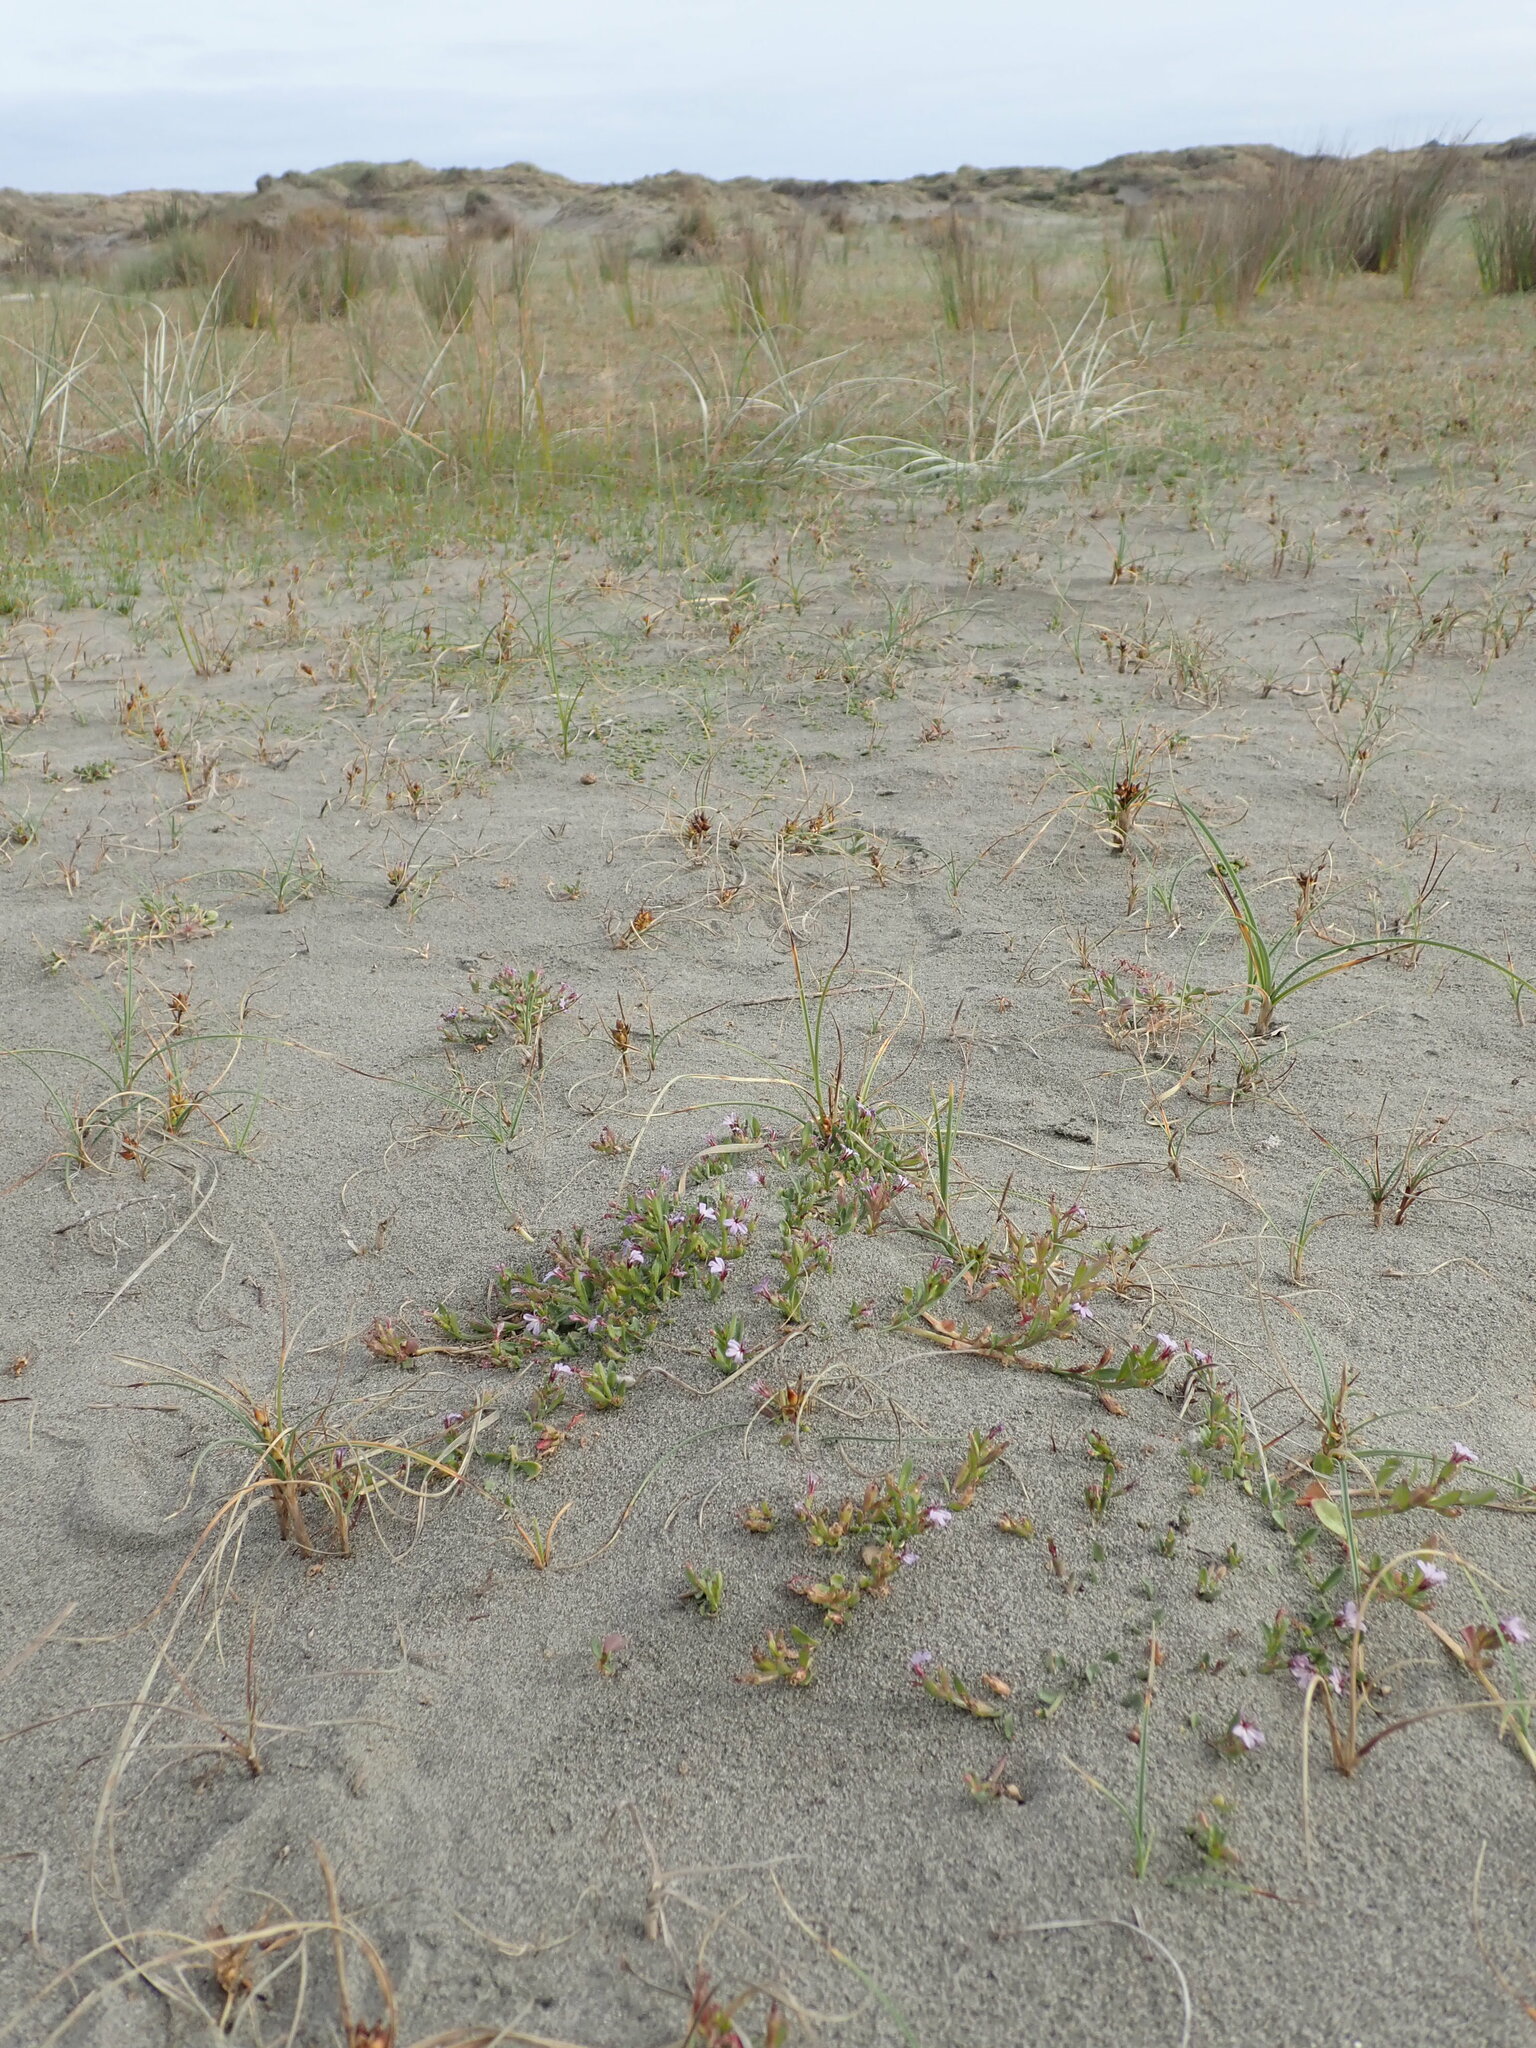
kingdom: Plantae
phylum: Tracheophyta
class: Magnoliopsida
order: Asterales
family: Campanulaceae
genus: Lobelia
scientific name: Lobelia anceps
